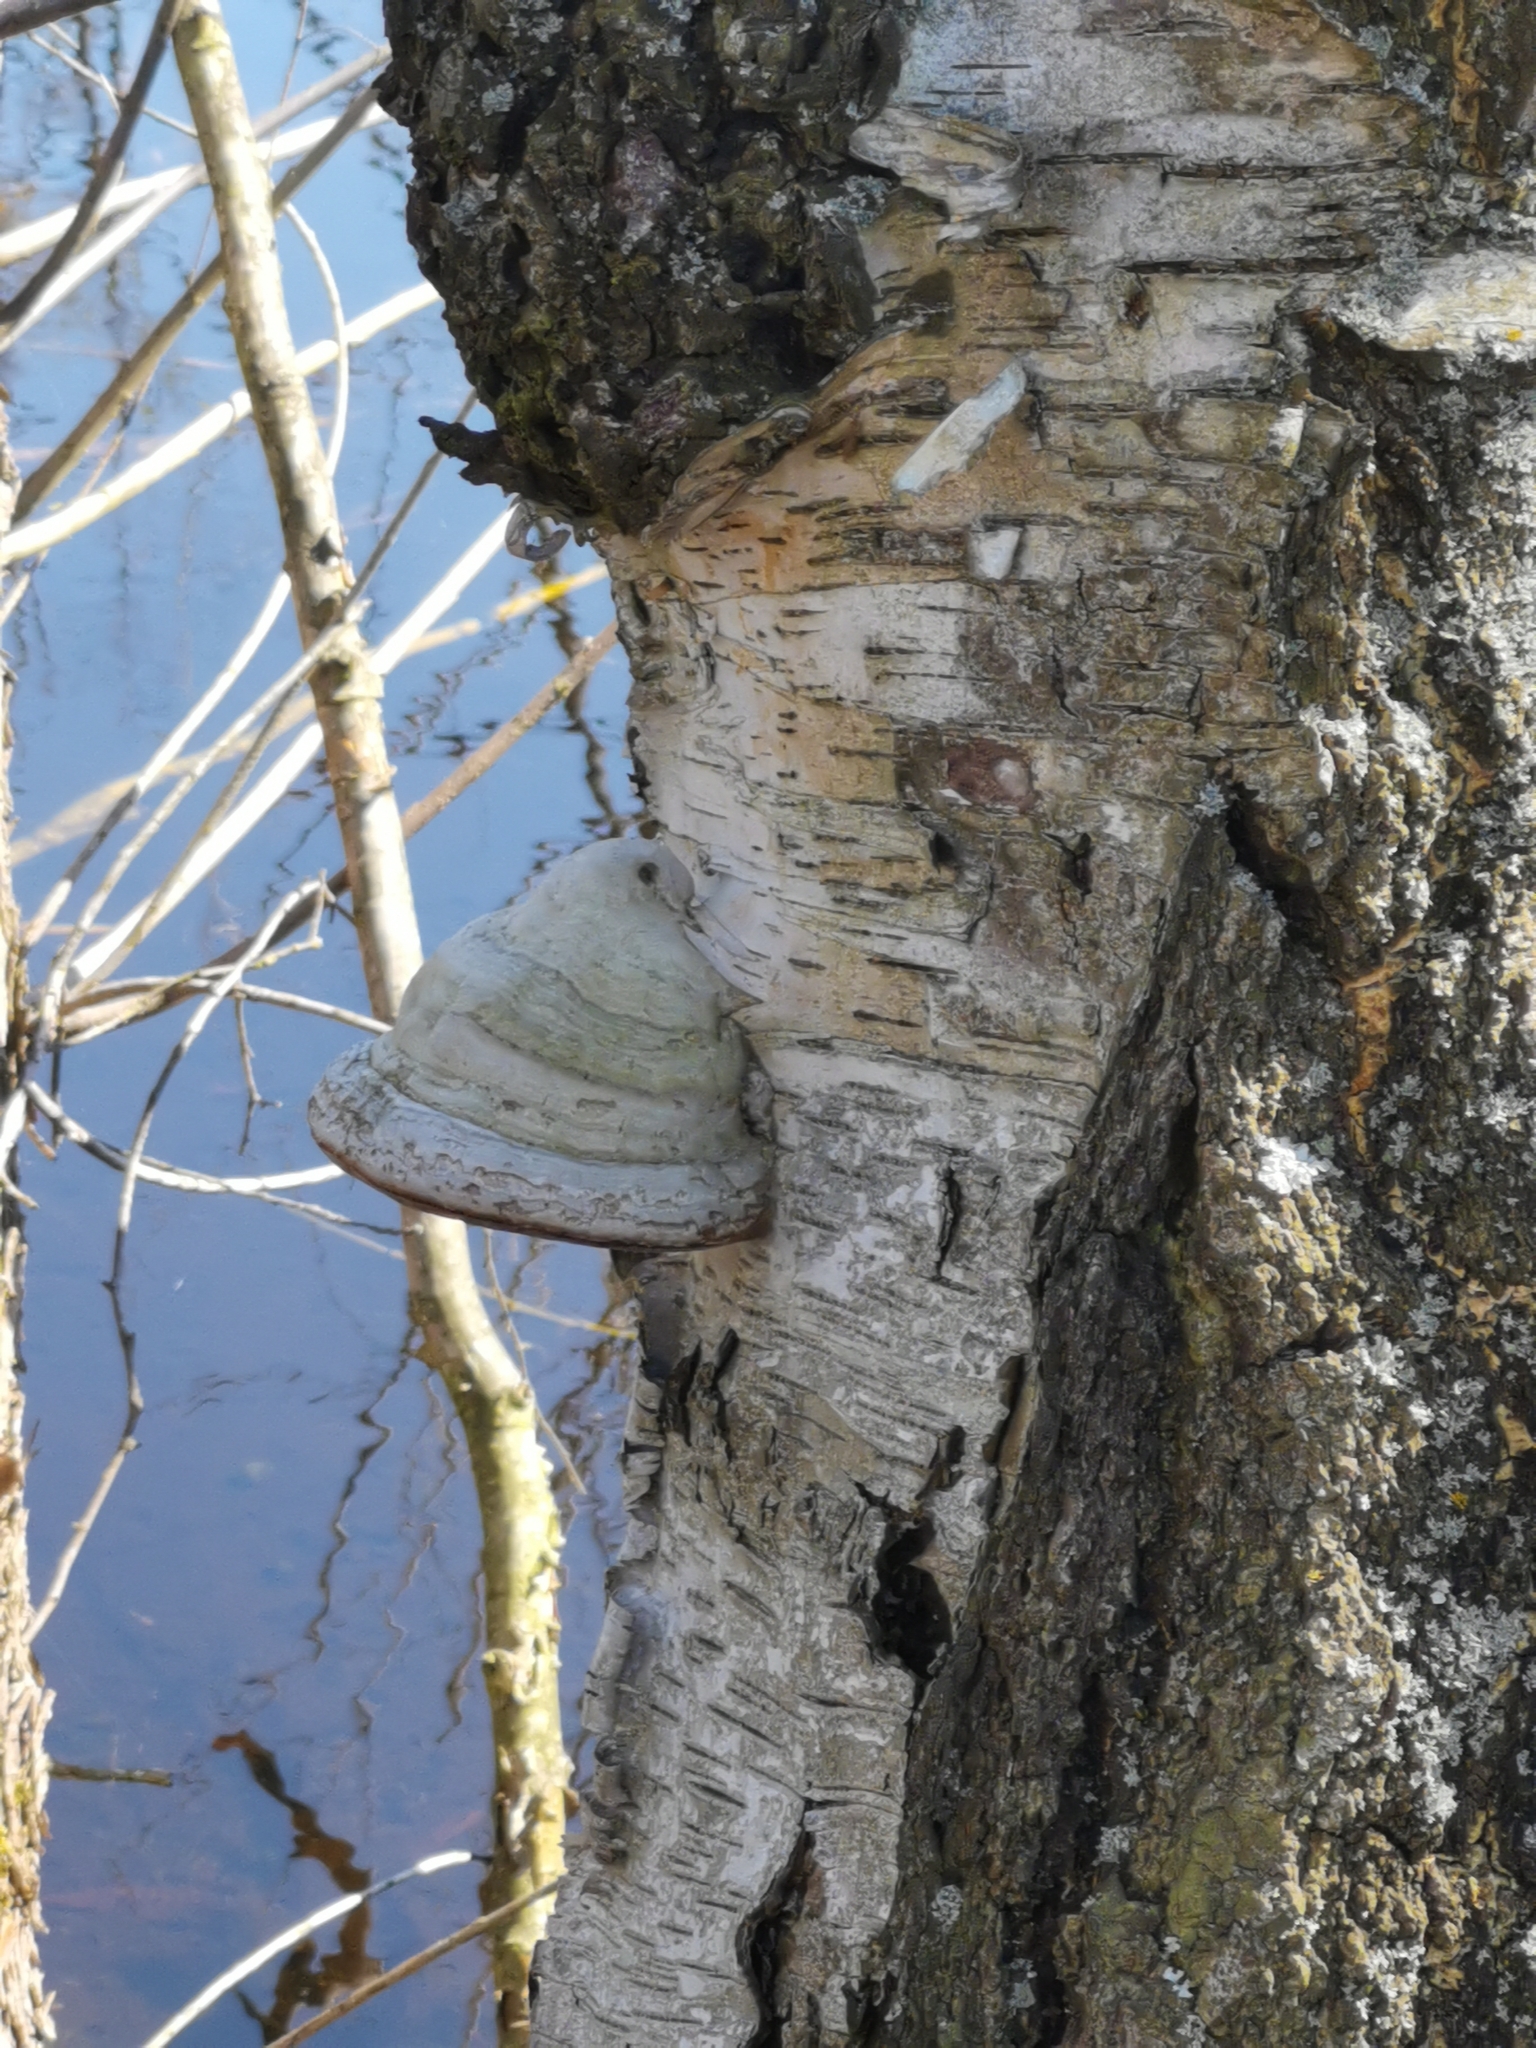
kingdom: Fungi
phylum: Basidiomycota
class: Agaricomycetes
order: Polyporales
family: Polyporaceae
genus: Fomes
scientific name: Fomes fomentarius
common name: Hoof fungus
